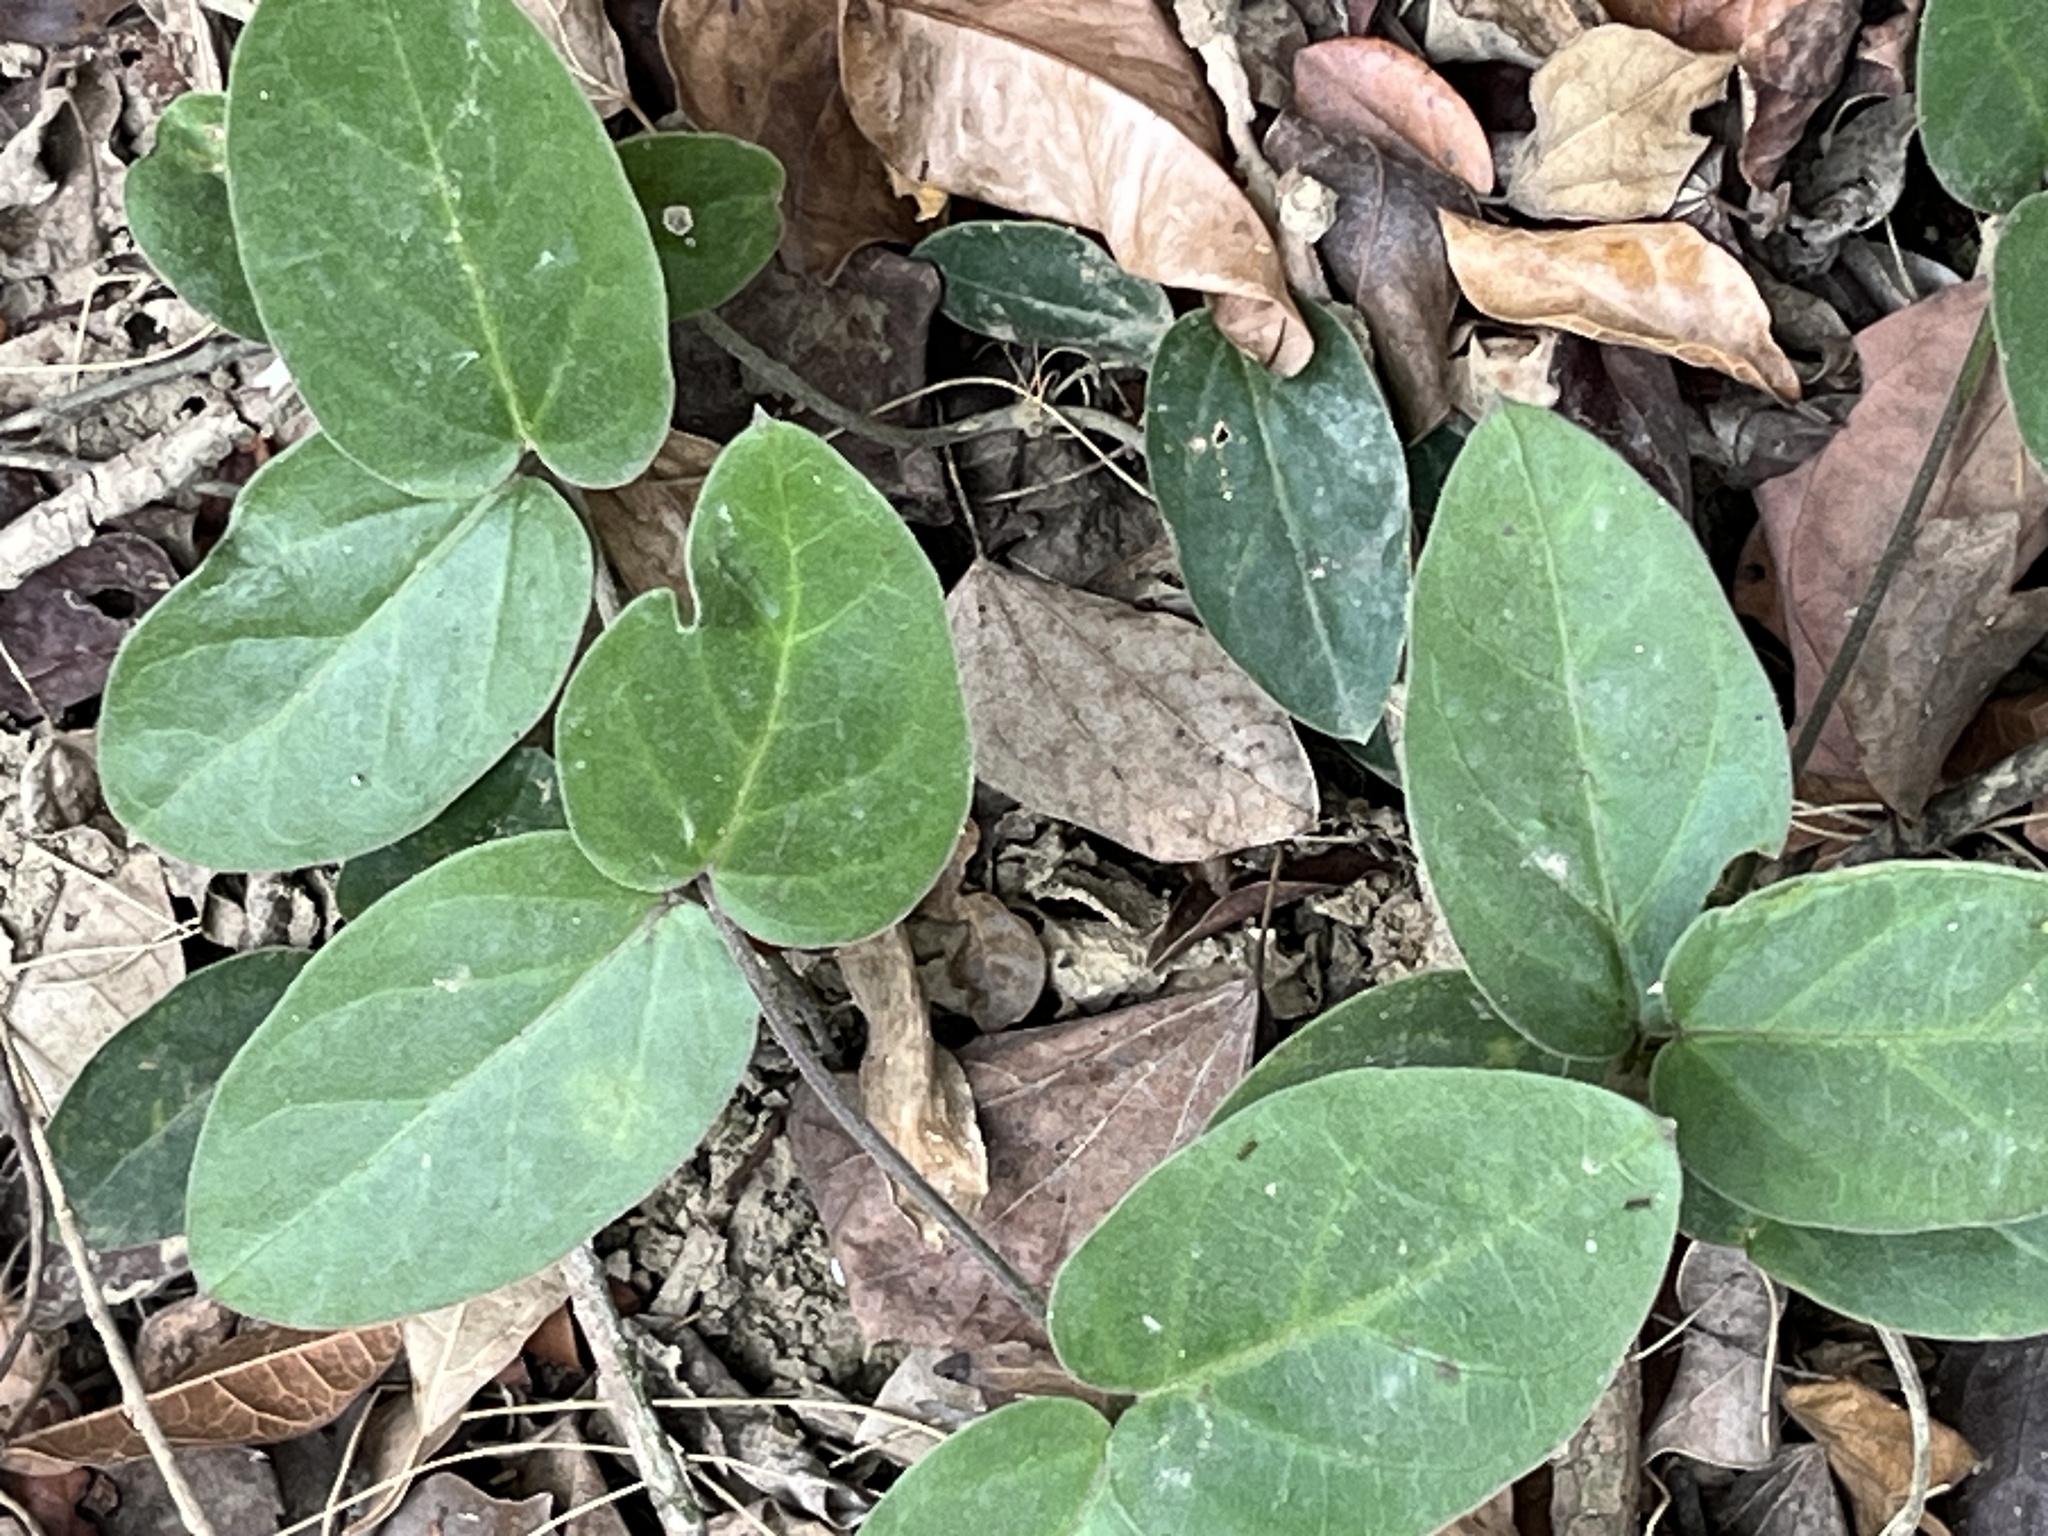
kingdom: Plantae
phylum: Tracheophyta
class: Magnoliopsida
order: Gentianales
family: Apocynaceae
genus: Vincetoxicum
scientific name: Vincetoxicum hirsutum
